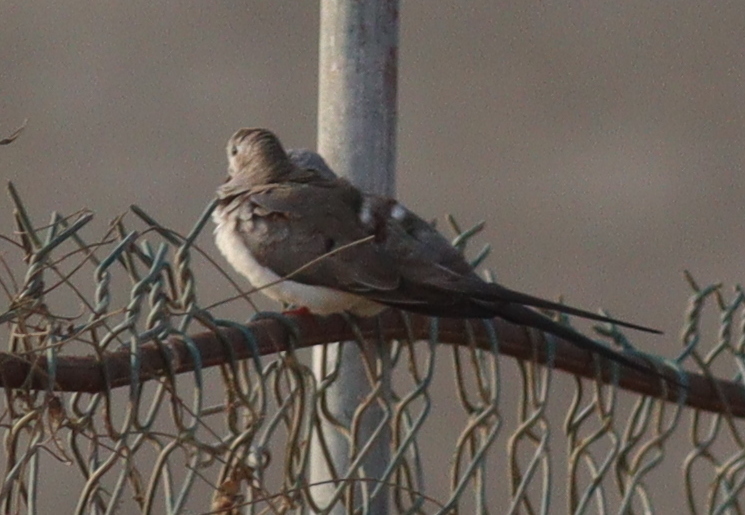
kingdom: Animalia
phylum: Chordata
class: Aves
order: Columbiformes
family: Columbidae
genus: Oena
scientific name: Oena capensis
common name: Namaqua dove
